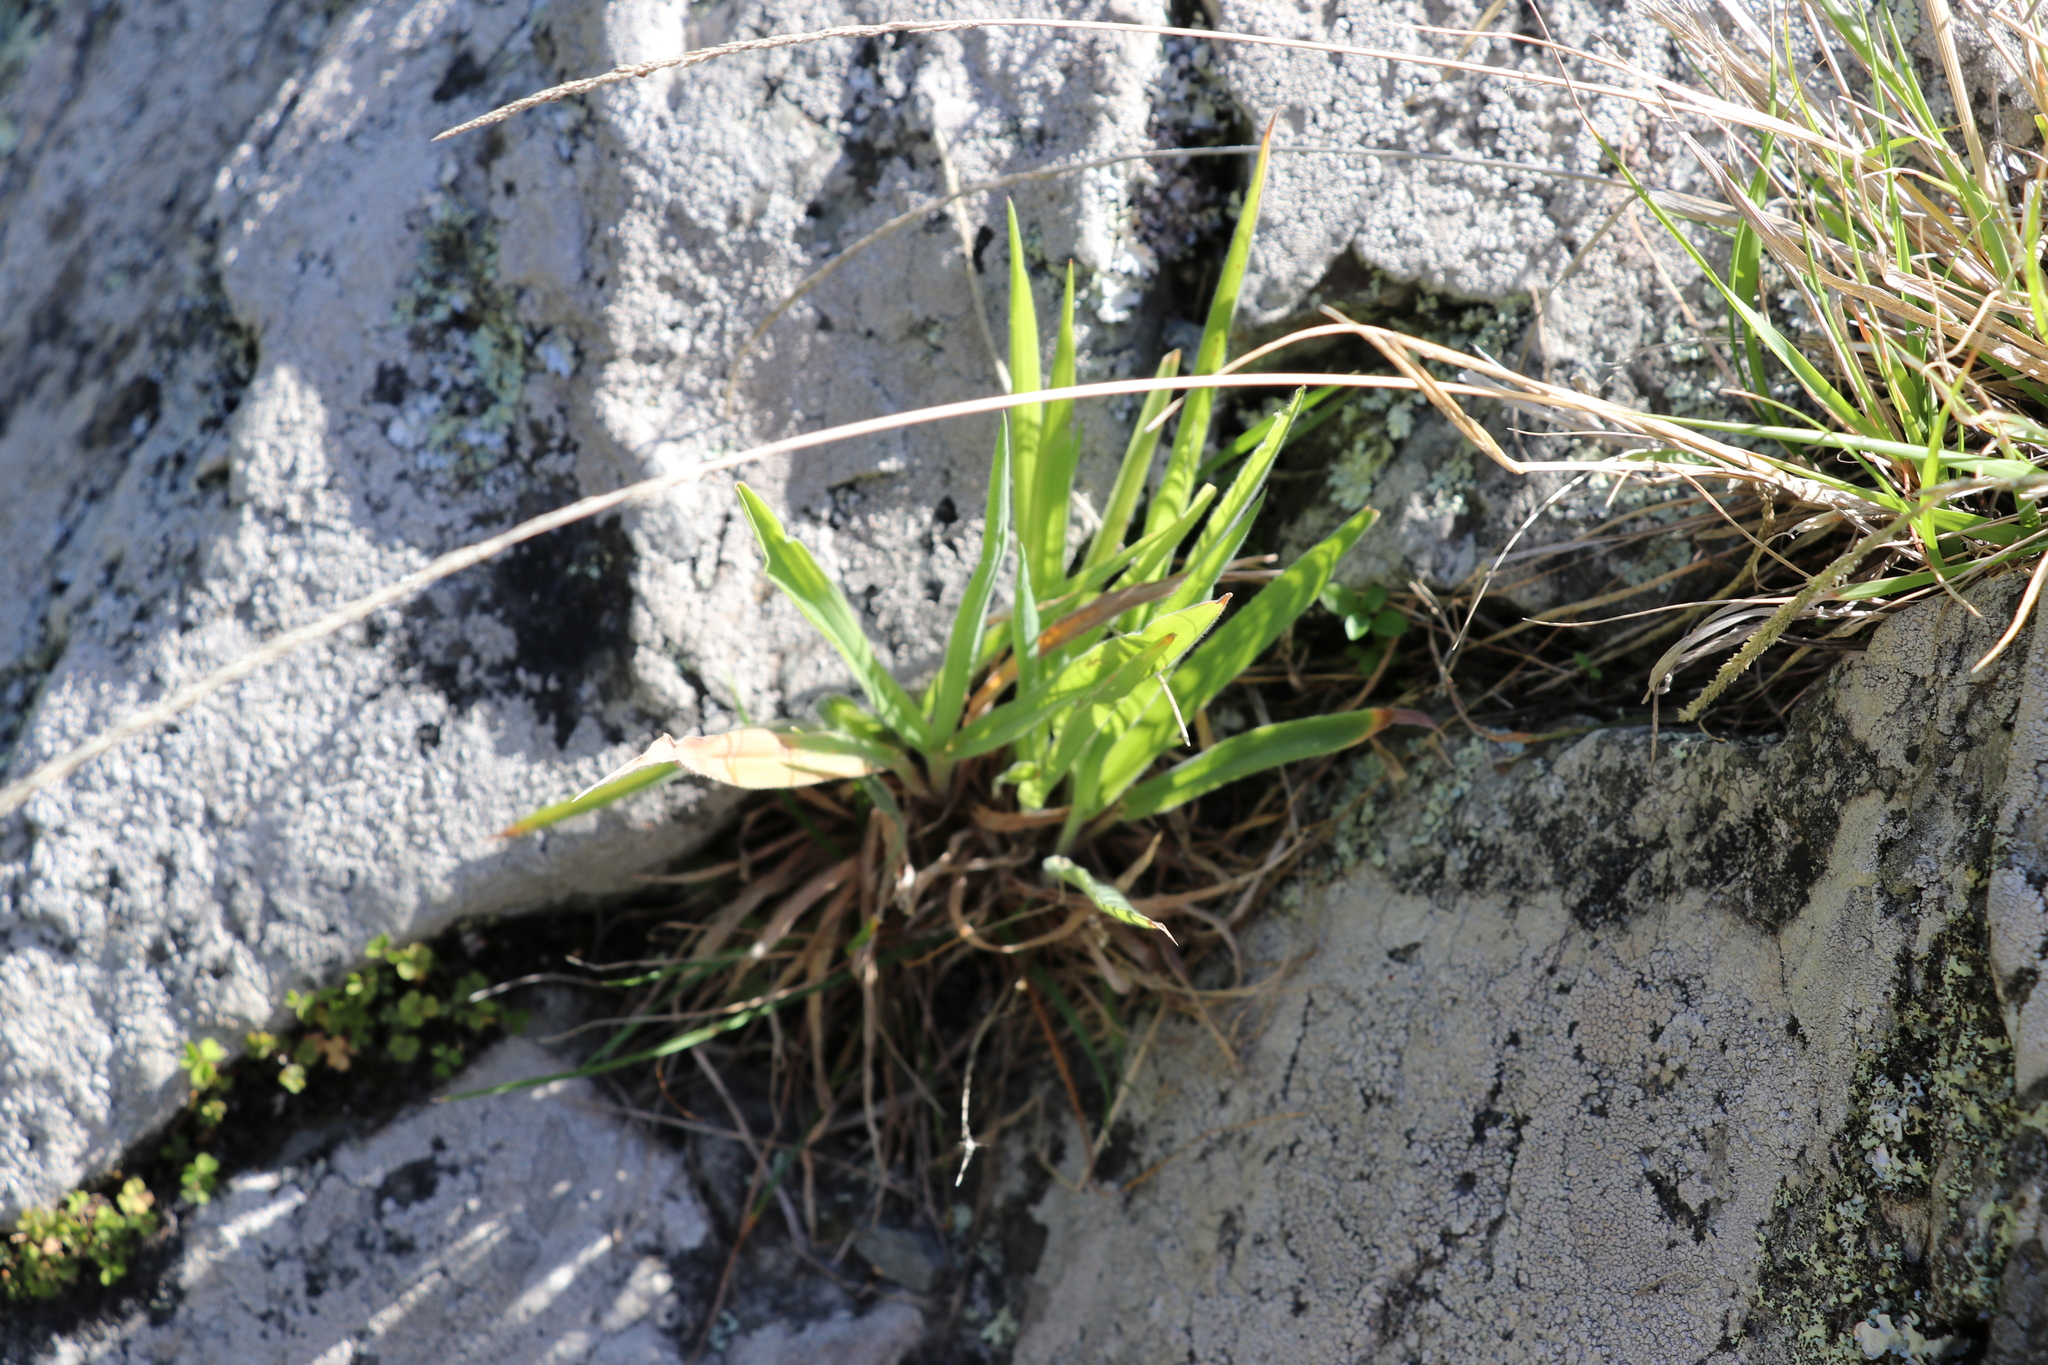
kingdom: Plantae
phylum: Tracheophyta
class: Liliopsida
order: Poales
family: Poaceae
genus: Holcus
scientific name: Holcus lanatus
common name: Yorkshire-fog
